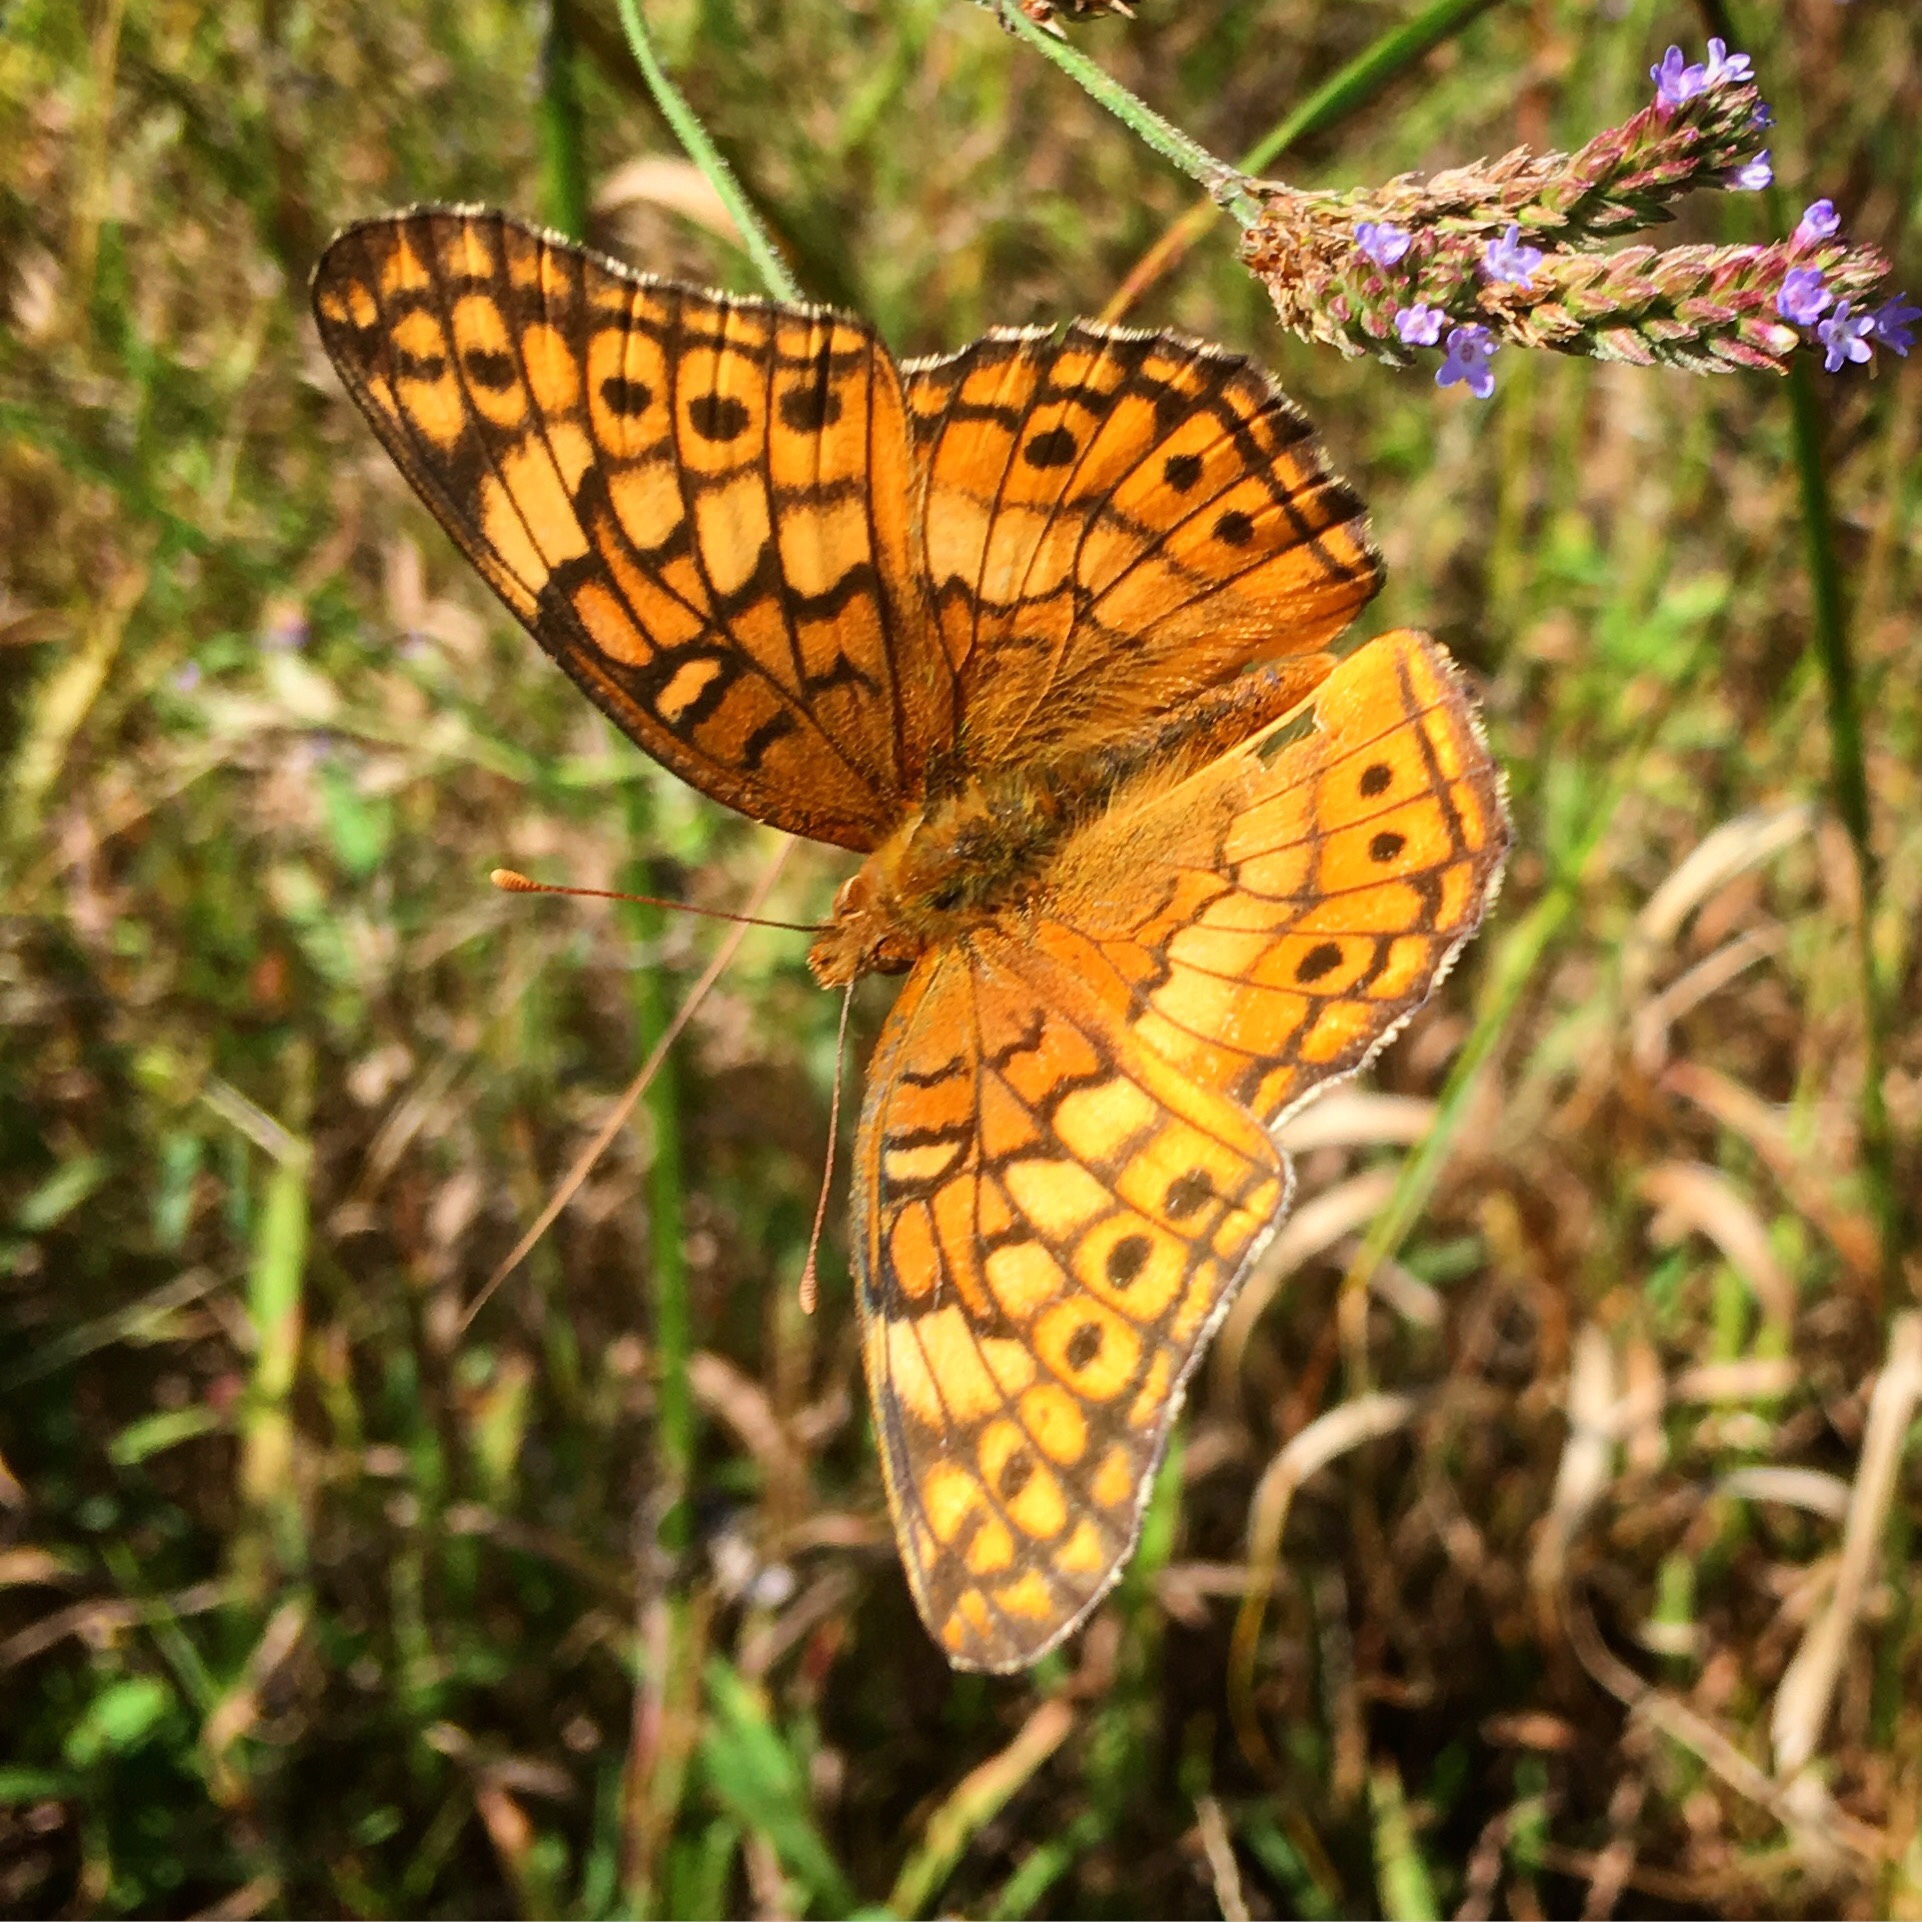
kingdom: Animalia
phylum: Arthropoda
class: Insecta
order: Lepidoptera
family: Nymphalidae
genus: Euptoieta
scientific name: Euptoieta claudia
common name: Variegated fritillary
